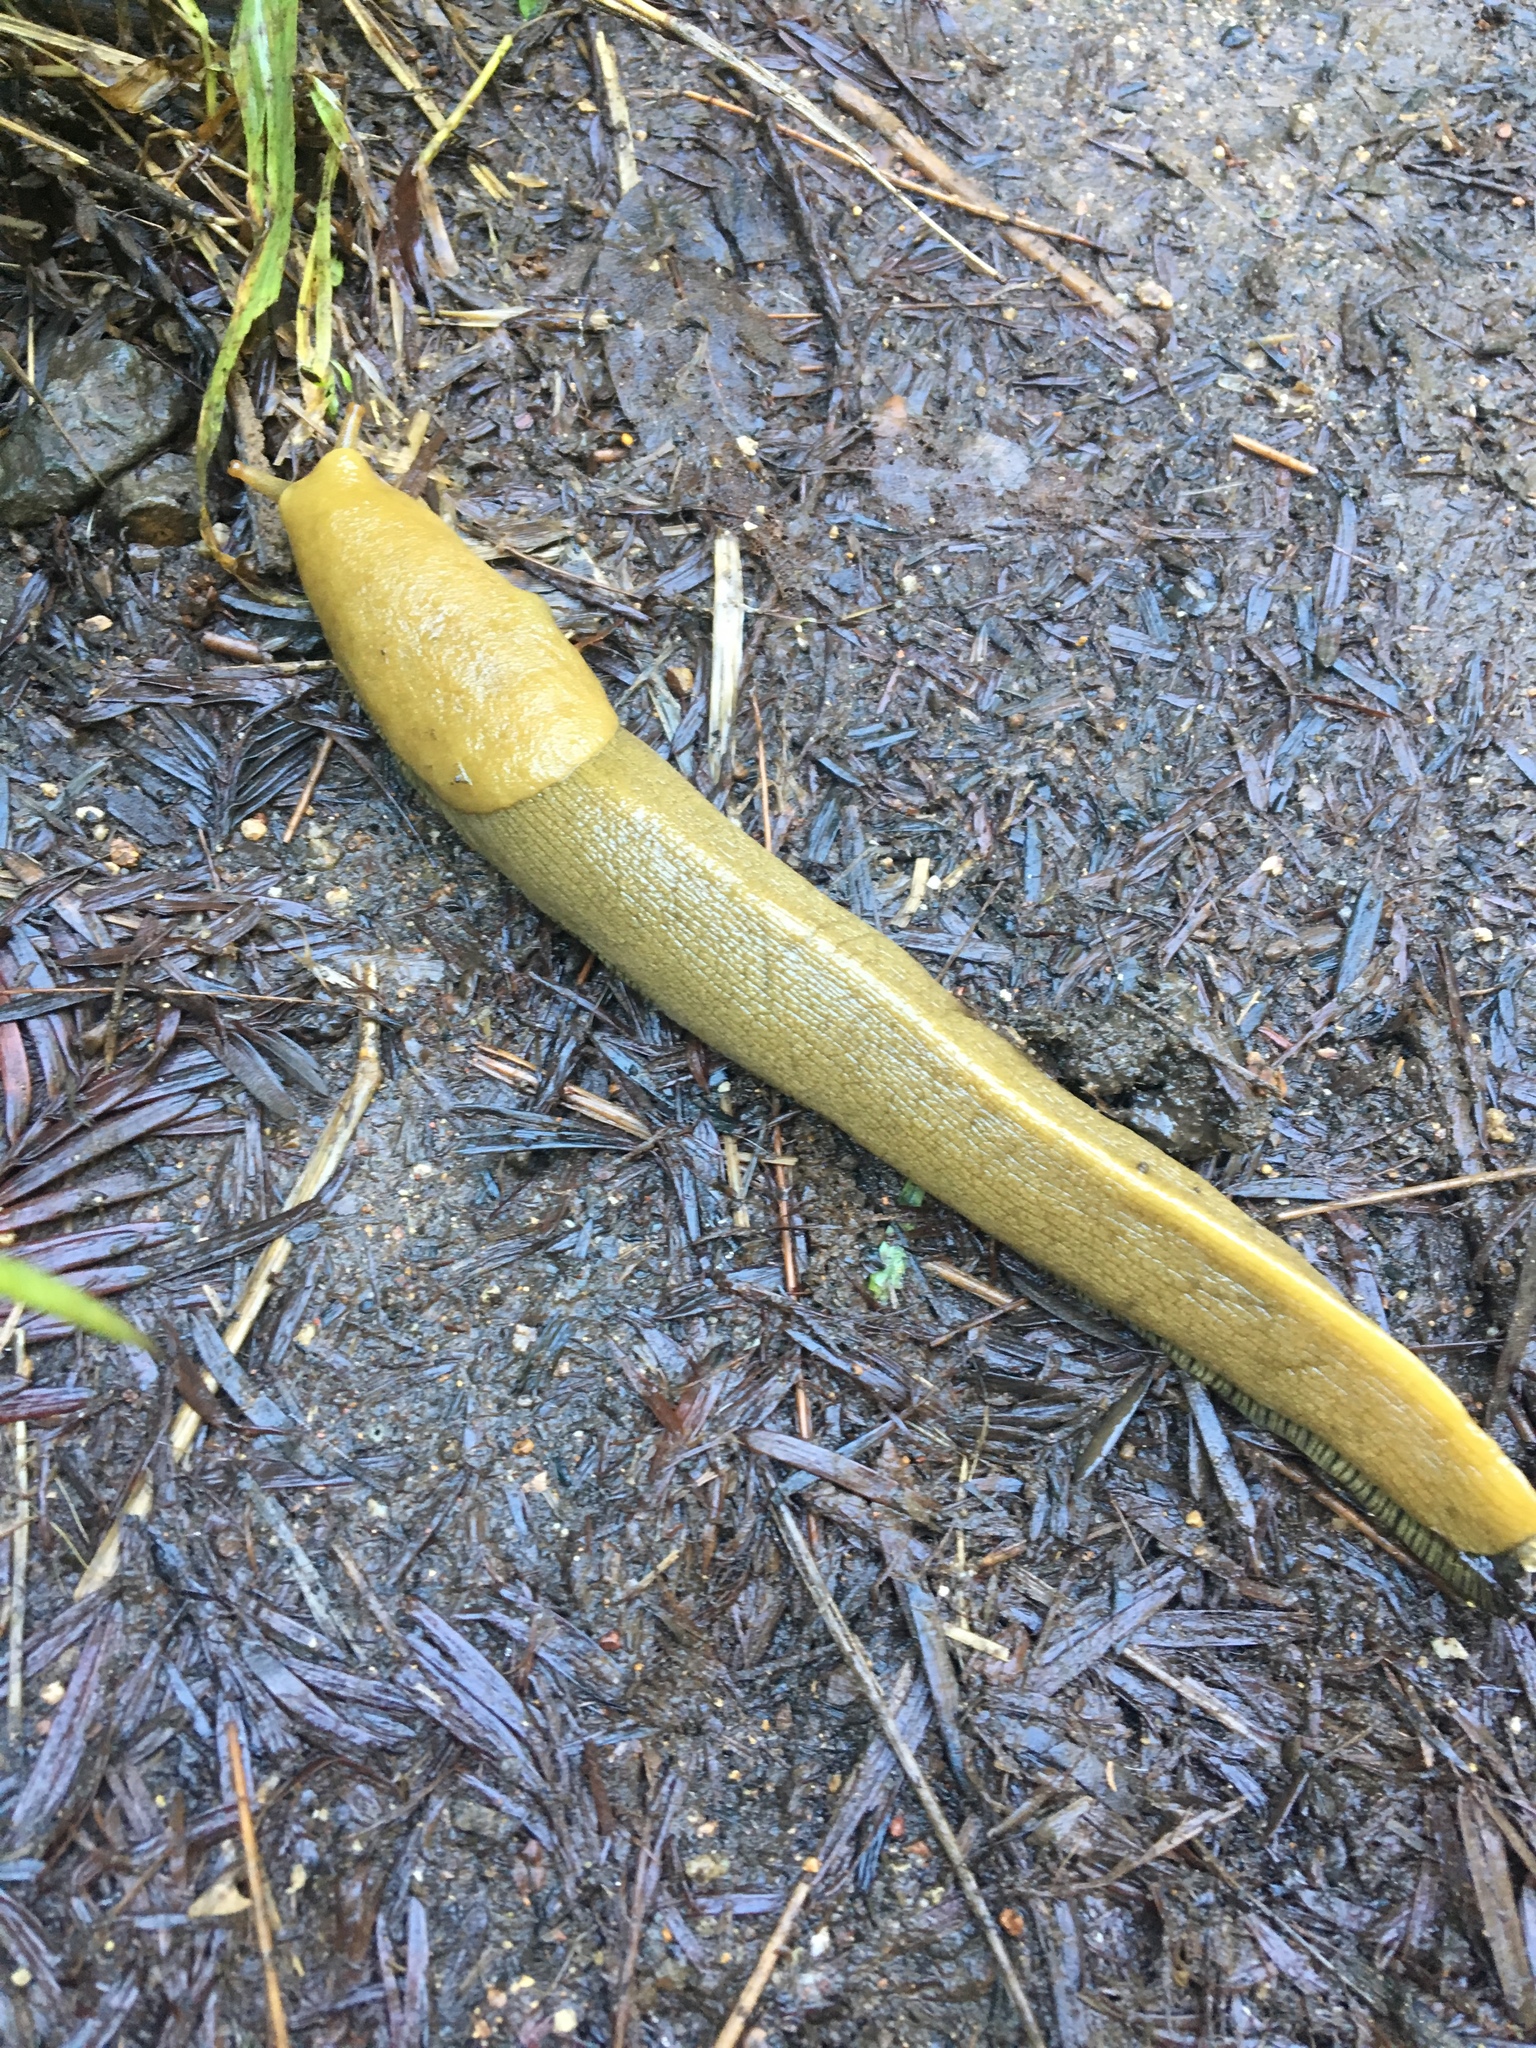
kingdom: Animalia
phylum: Mollusca
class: Gastropoda
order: Stylommatophora
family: Ariolimacidae
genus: Ariolimax
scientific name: Ariolimax buttoni
